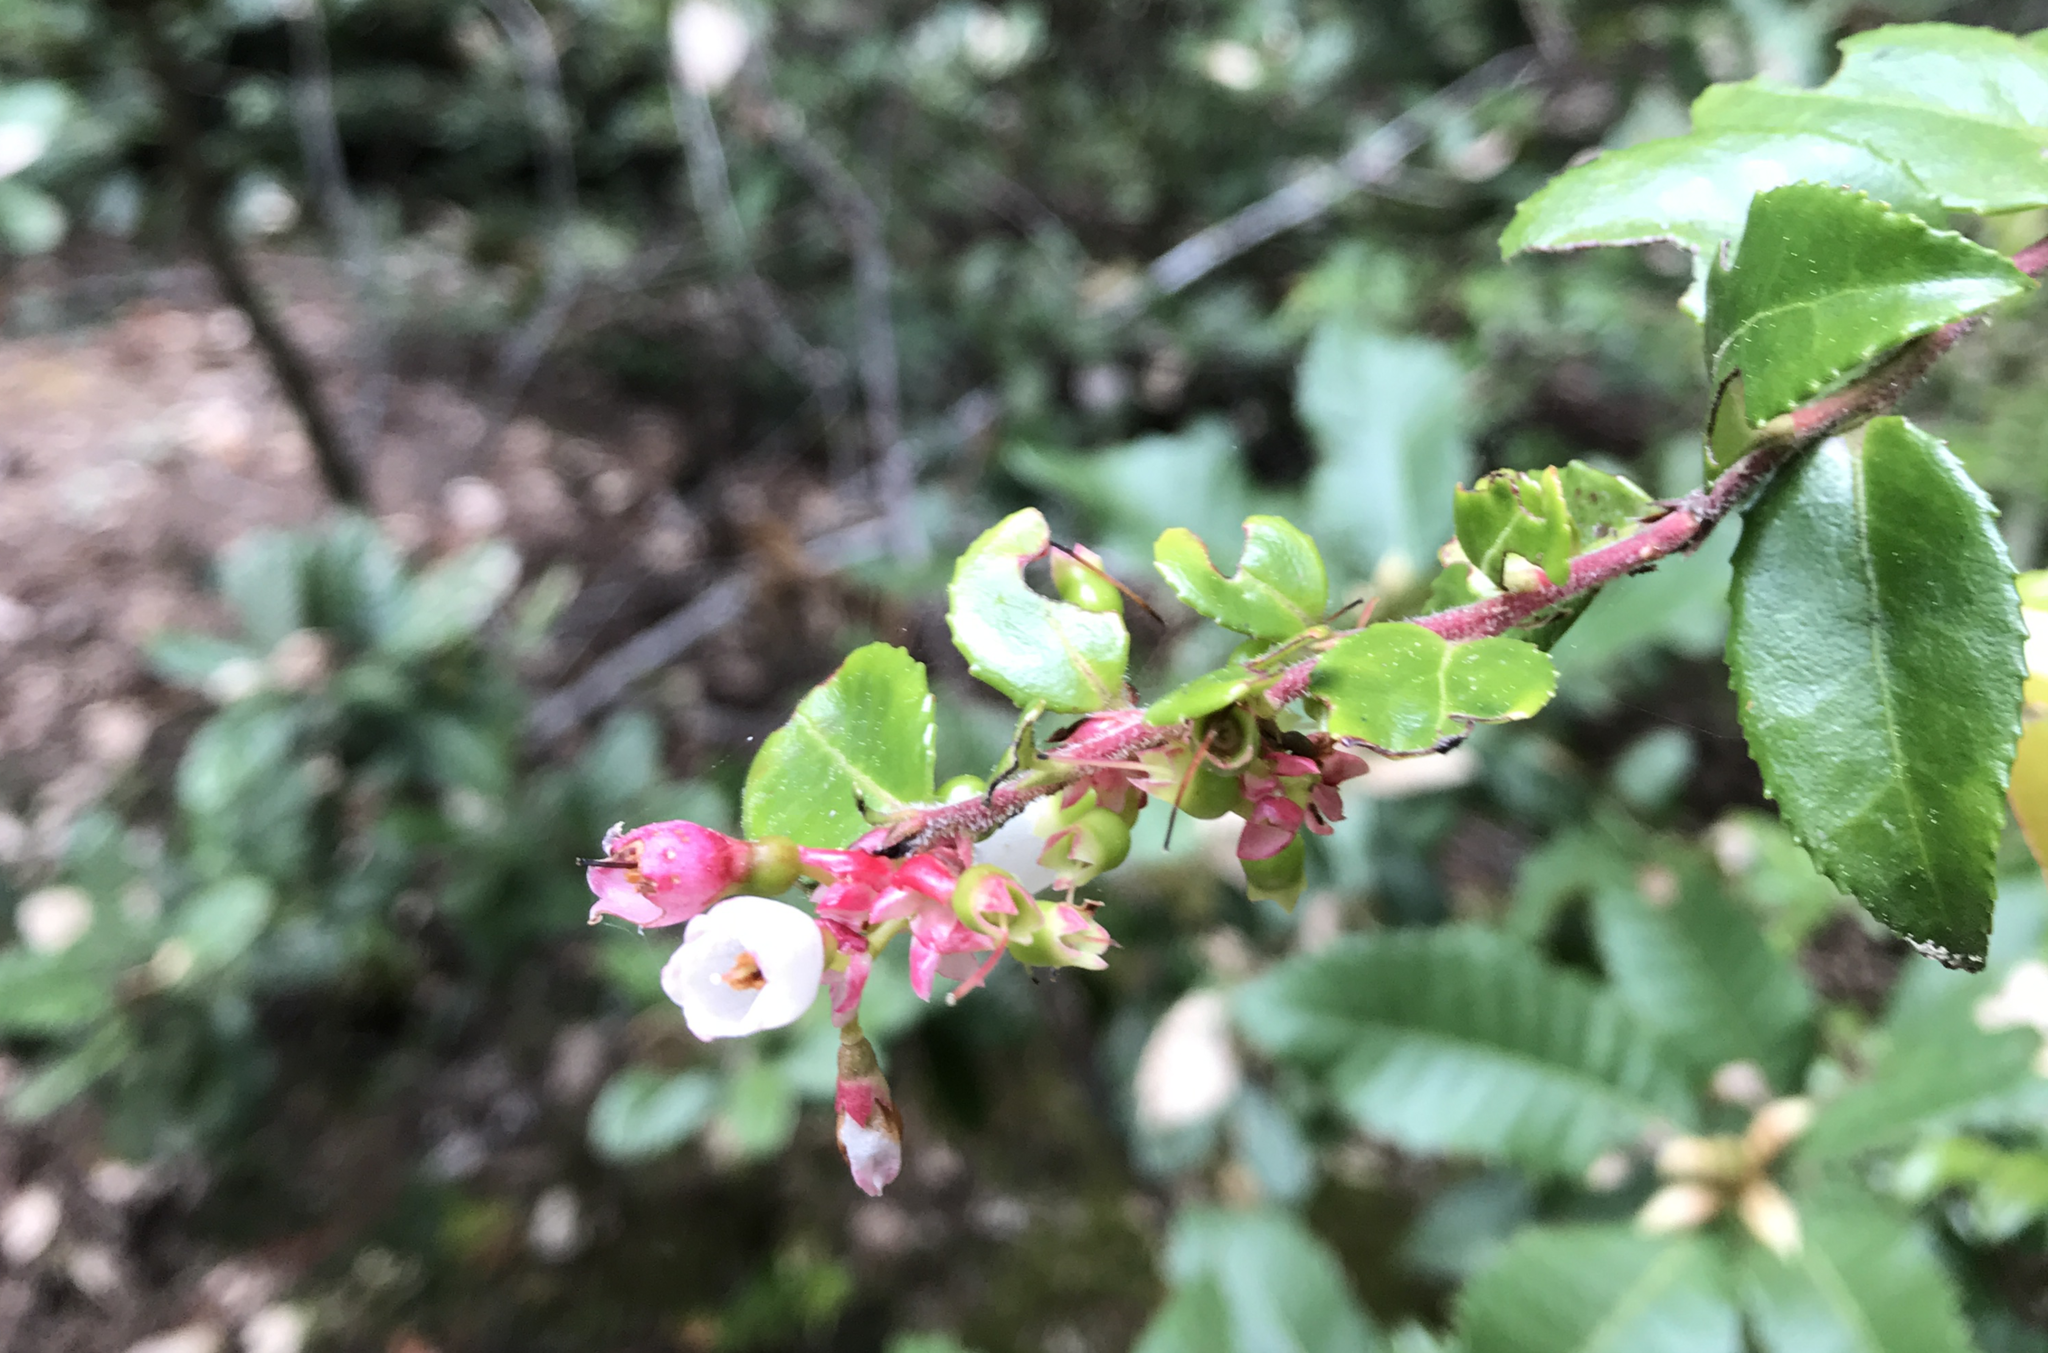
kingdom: Plantae
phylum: Tracheophyta
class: Magnoliopsida
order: Ericales
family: Ericaceae
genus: Vaccinium
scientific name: Vaccinium ovatum
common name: California-huckleberry
